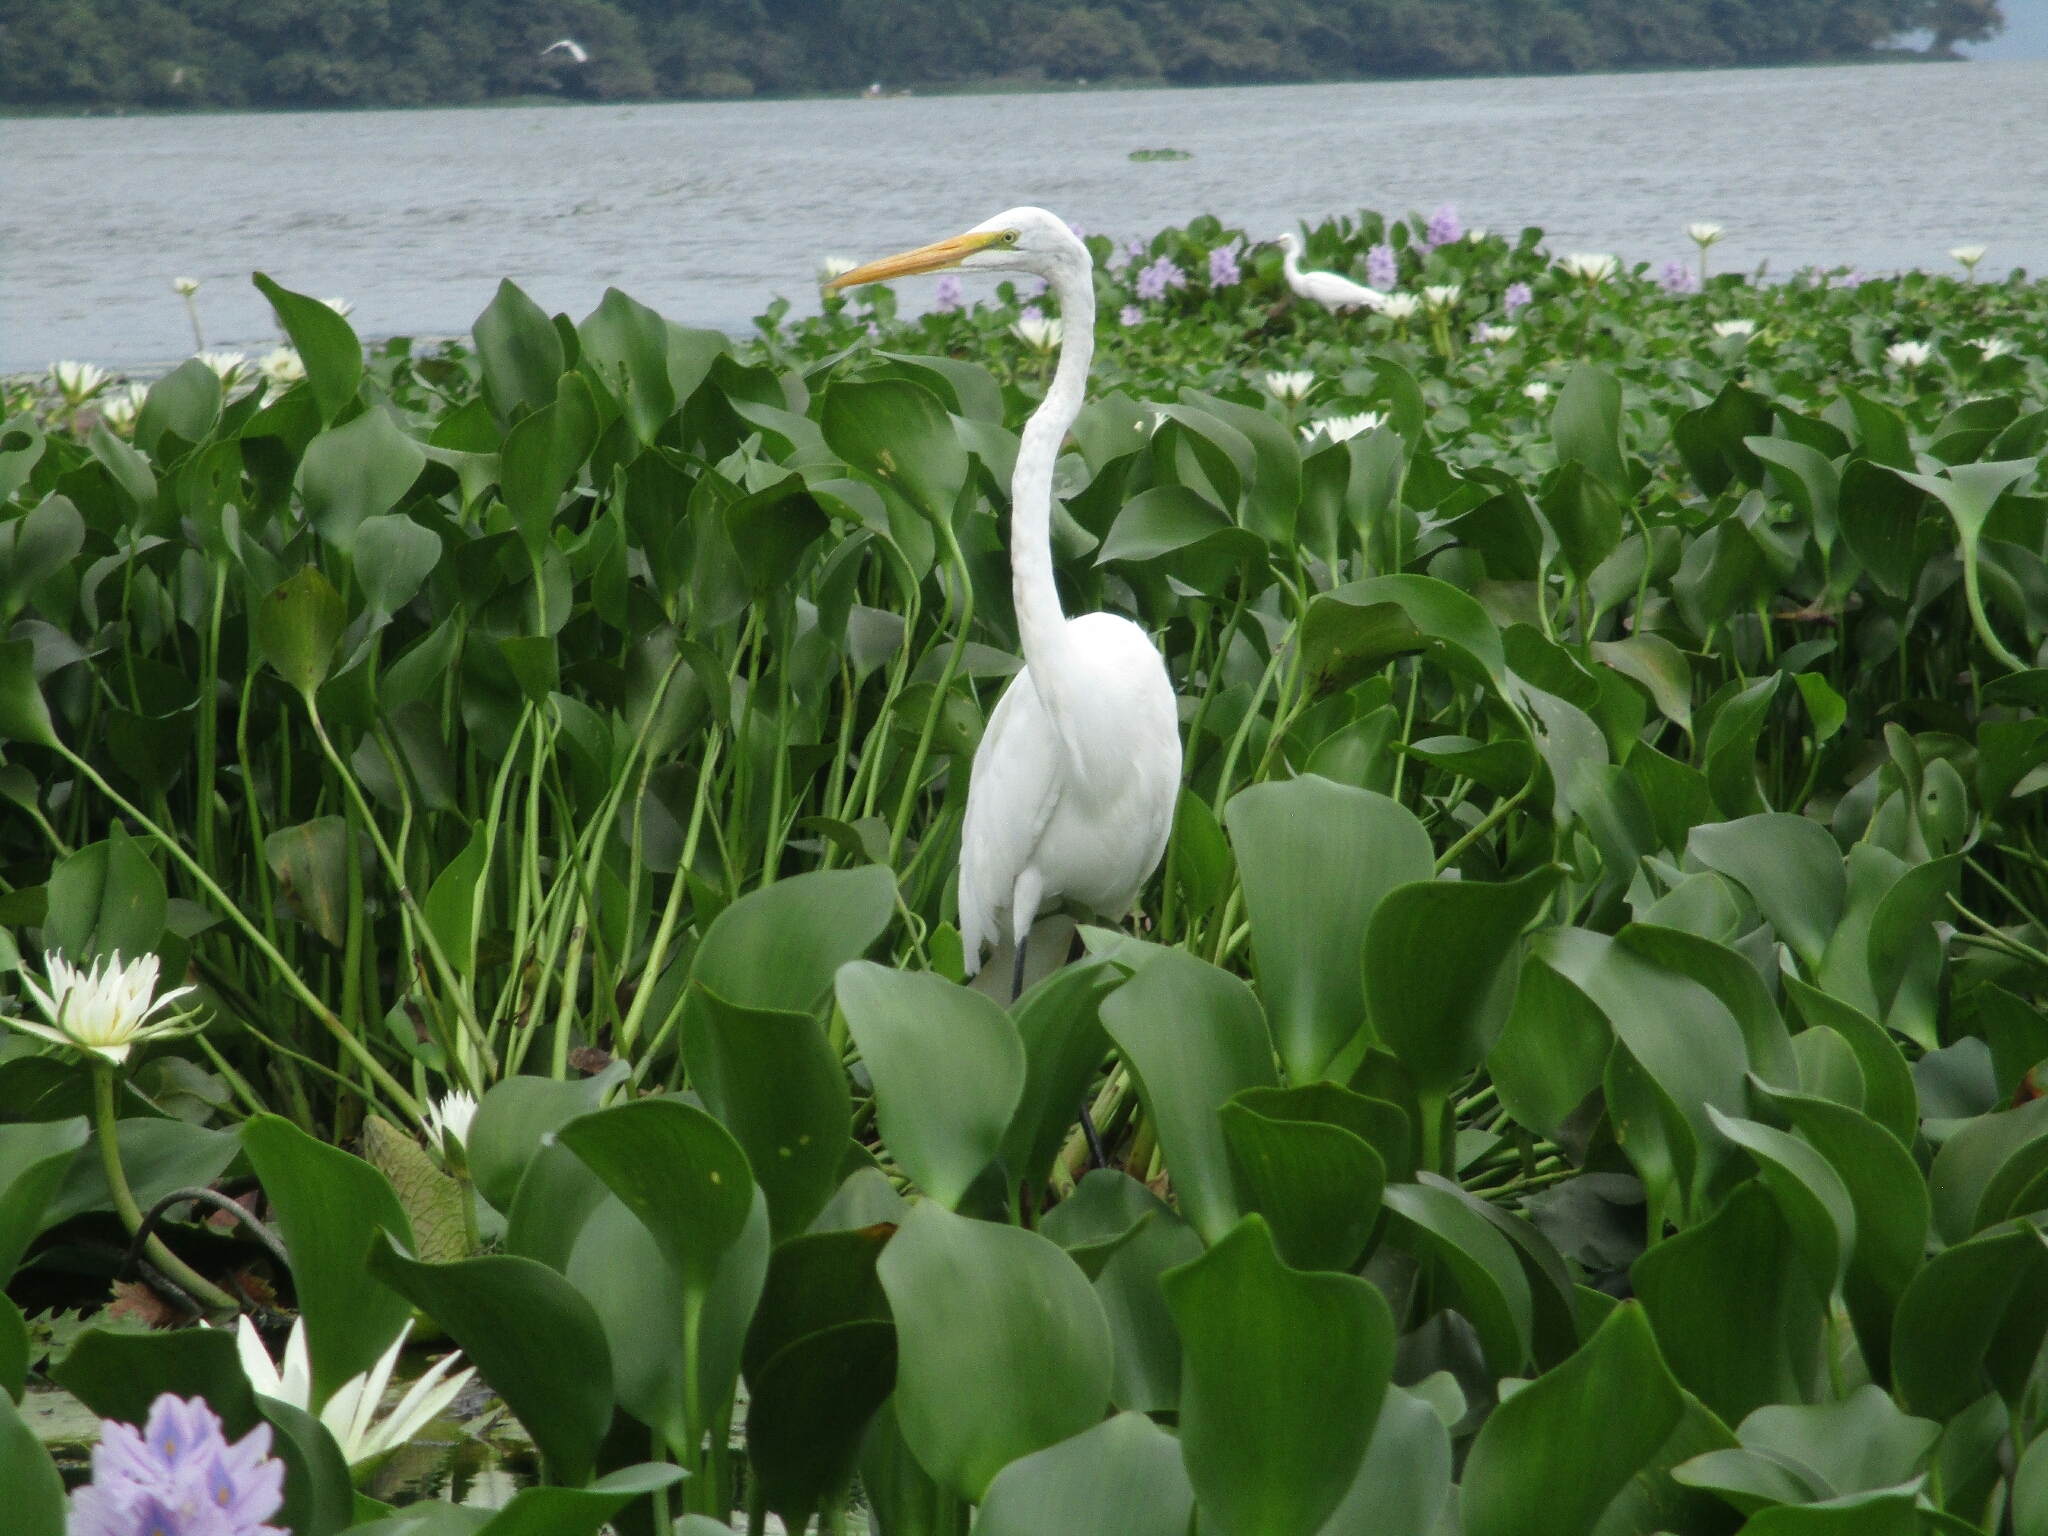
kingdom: Animalia
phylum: Chordata
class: Aves
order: Pelecaniformes
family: Ardeidae
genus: Ardea
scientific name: Ardea alba
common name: Great egret
